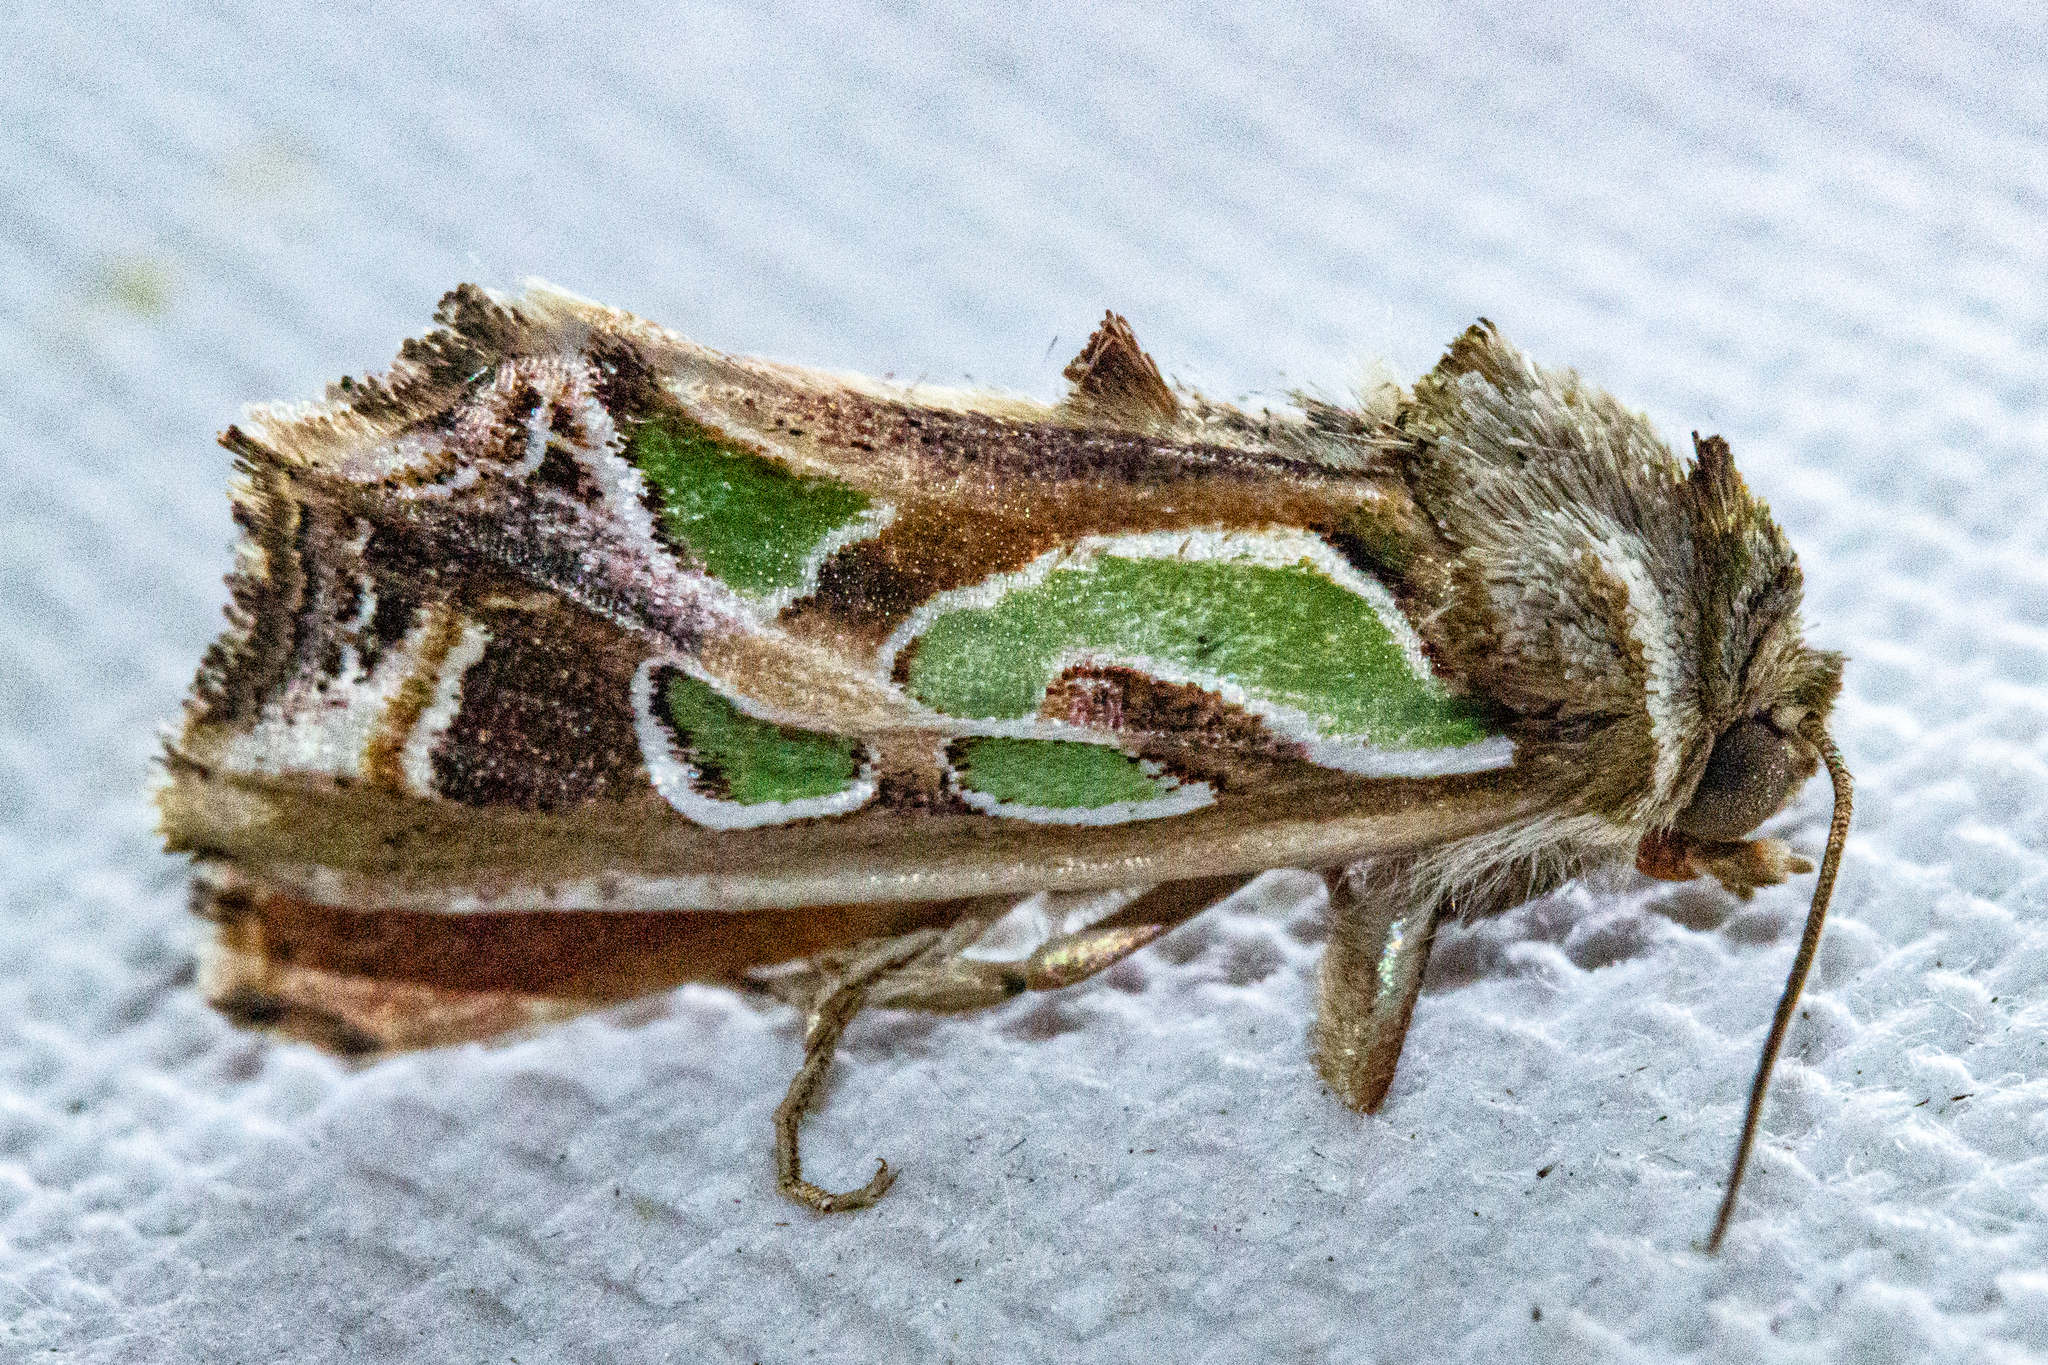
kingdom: Animalia
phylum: Arthropoda
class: Insecta
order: Lepidoptera
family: Noctuidae
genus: Cosmodes
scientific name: Cosmodes elegans
